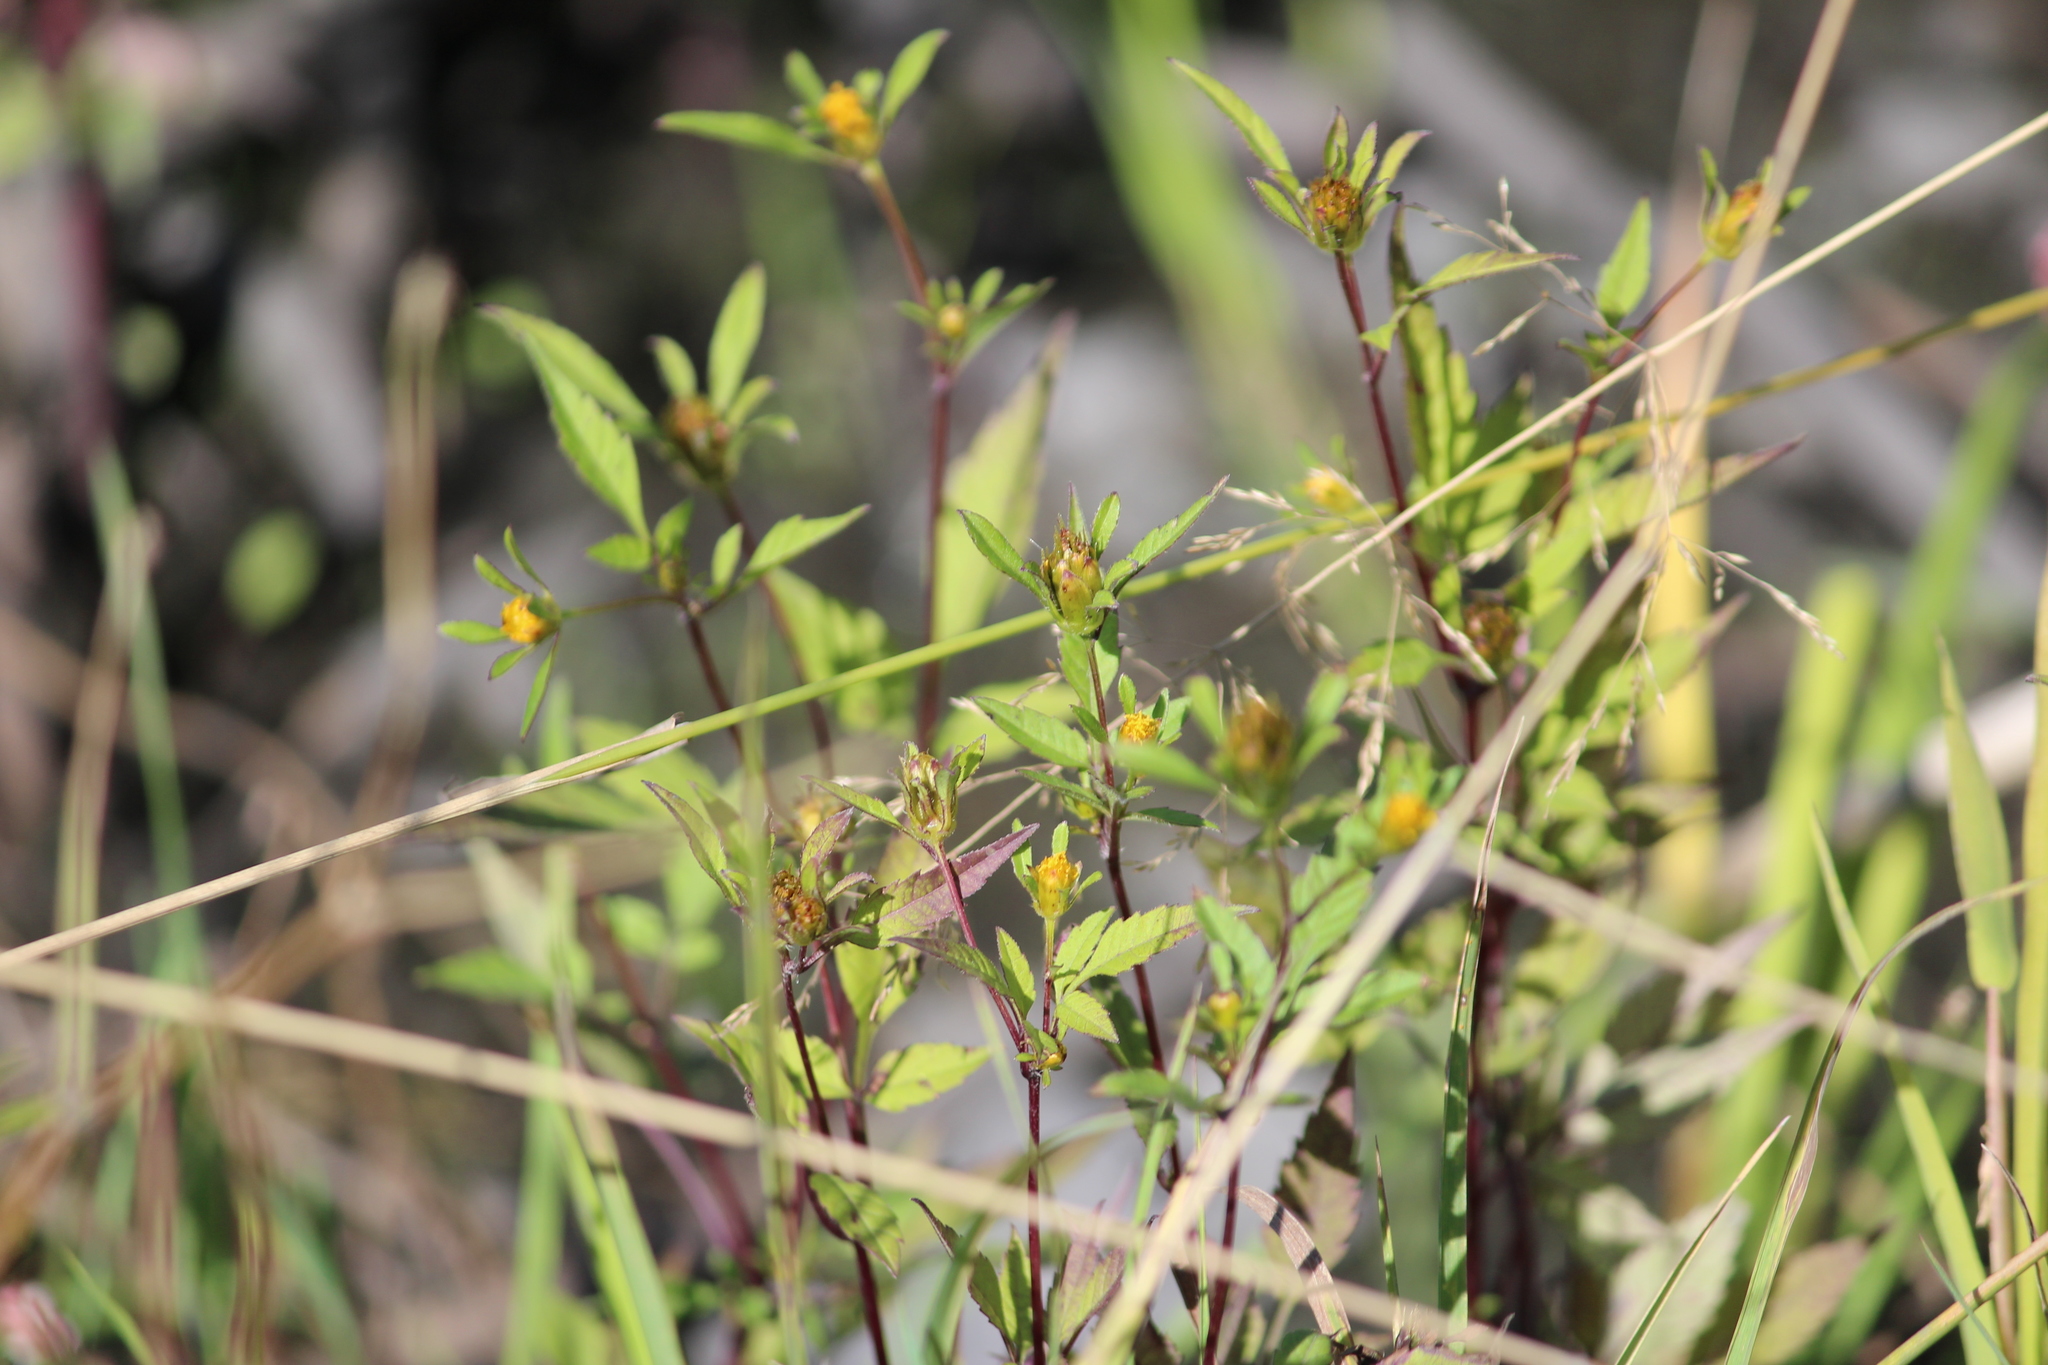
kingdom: Plantae
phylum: Tracheophyta
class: Magnoliopsida
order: Asterales
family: Asteraceae
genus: Bidens
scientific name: Bidens frondosa
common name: Beggarticks
